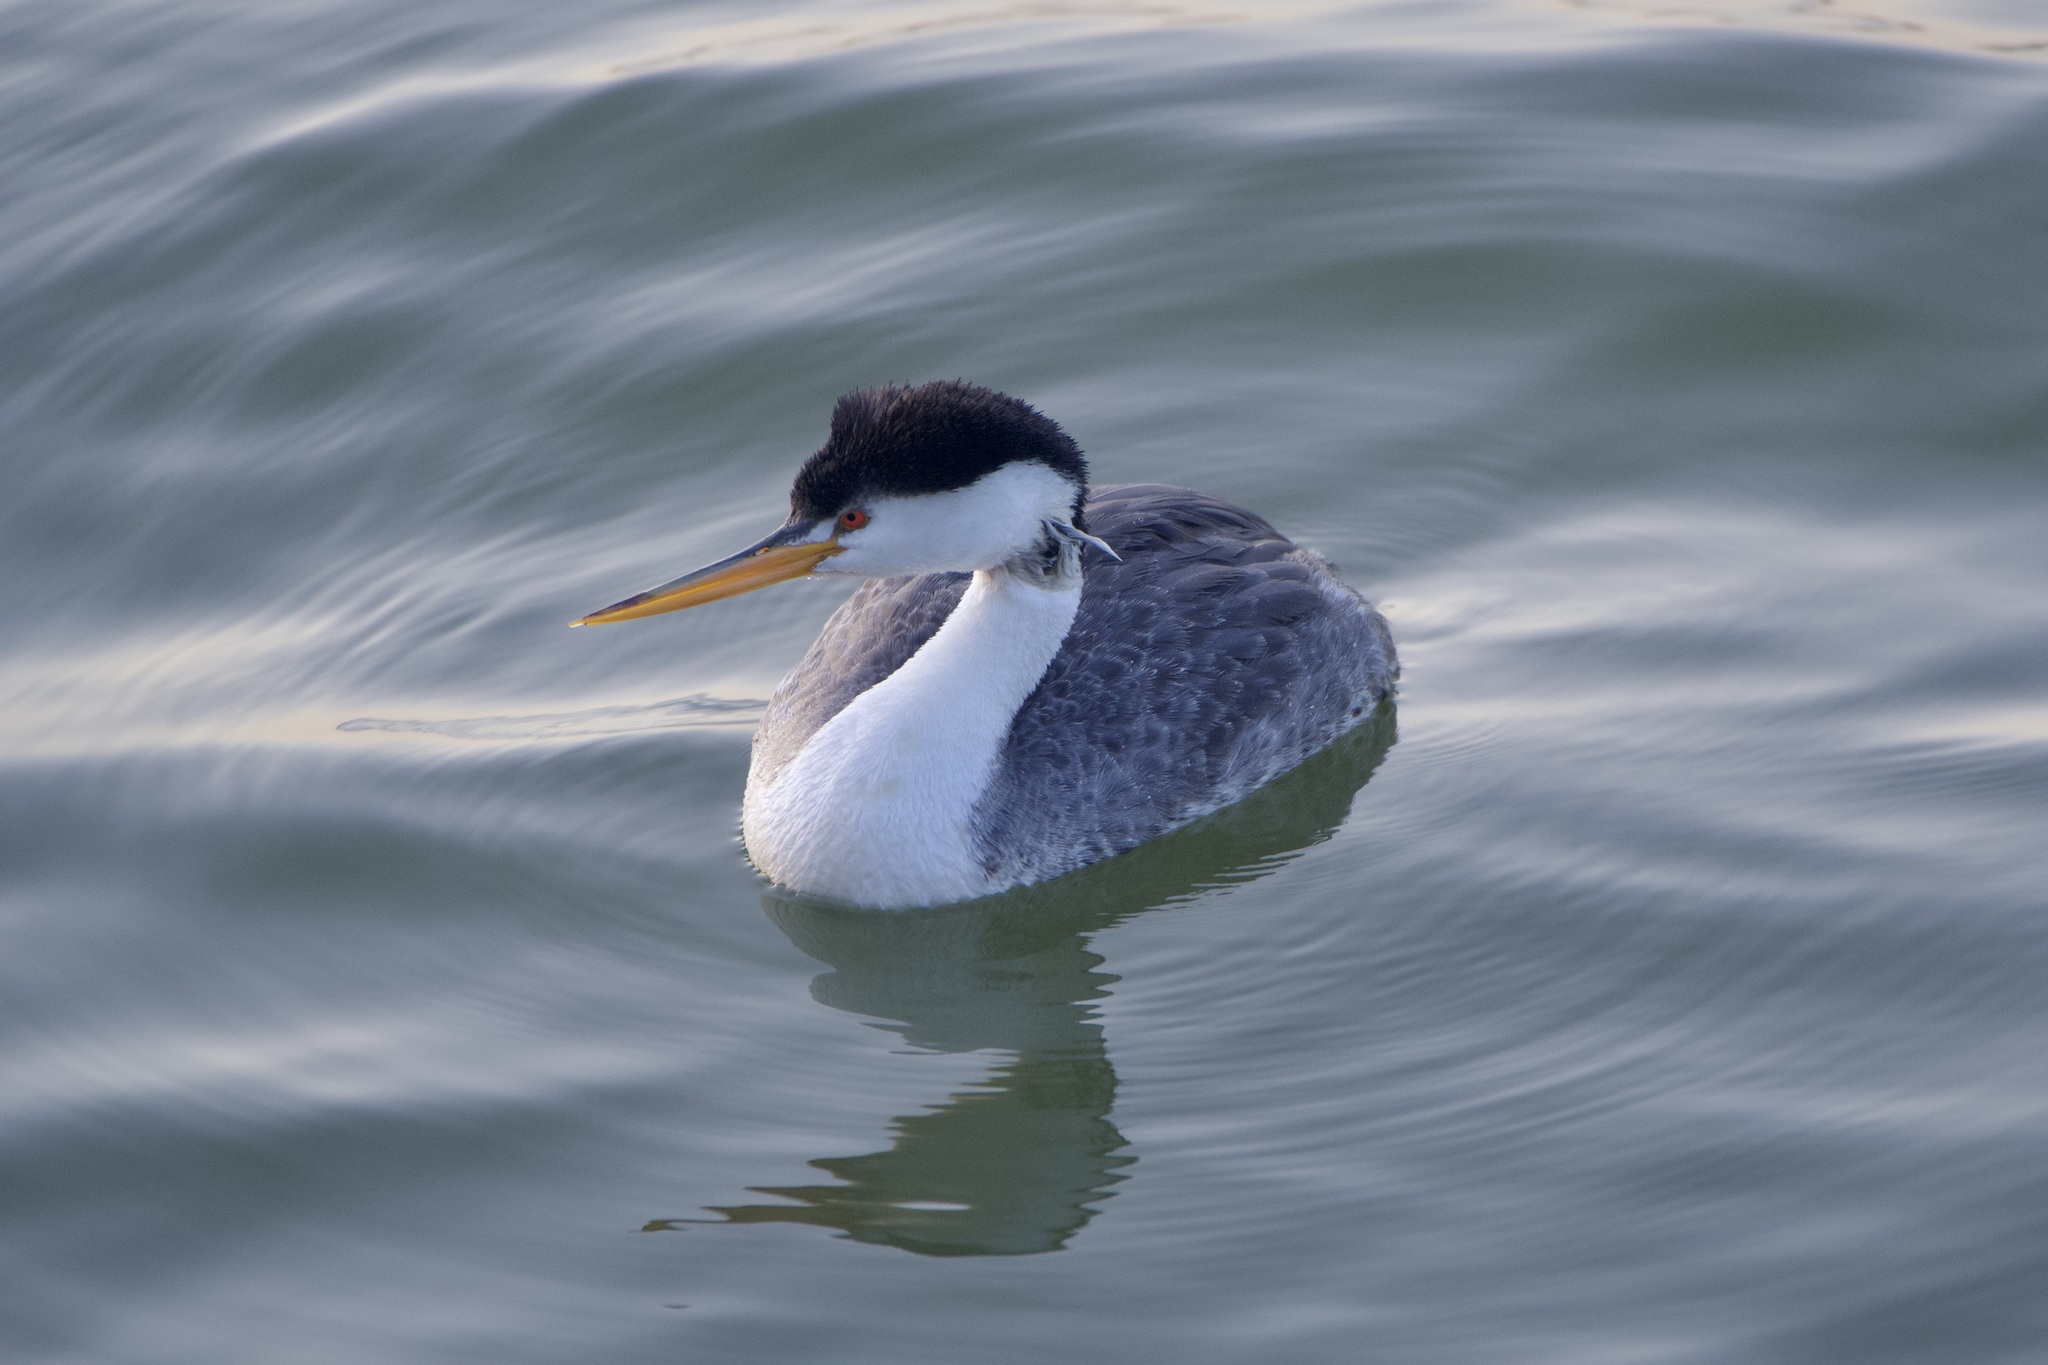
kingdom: Animalia
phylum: Chordata
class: Aves
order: Podicipediformes
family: Podicipedidae
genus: Aechmophorus
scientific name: Aechmophorus clarkii
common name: Clark's grebe
